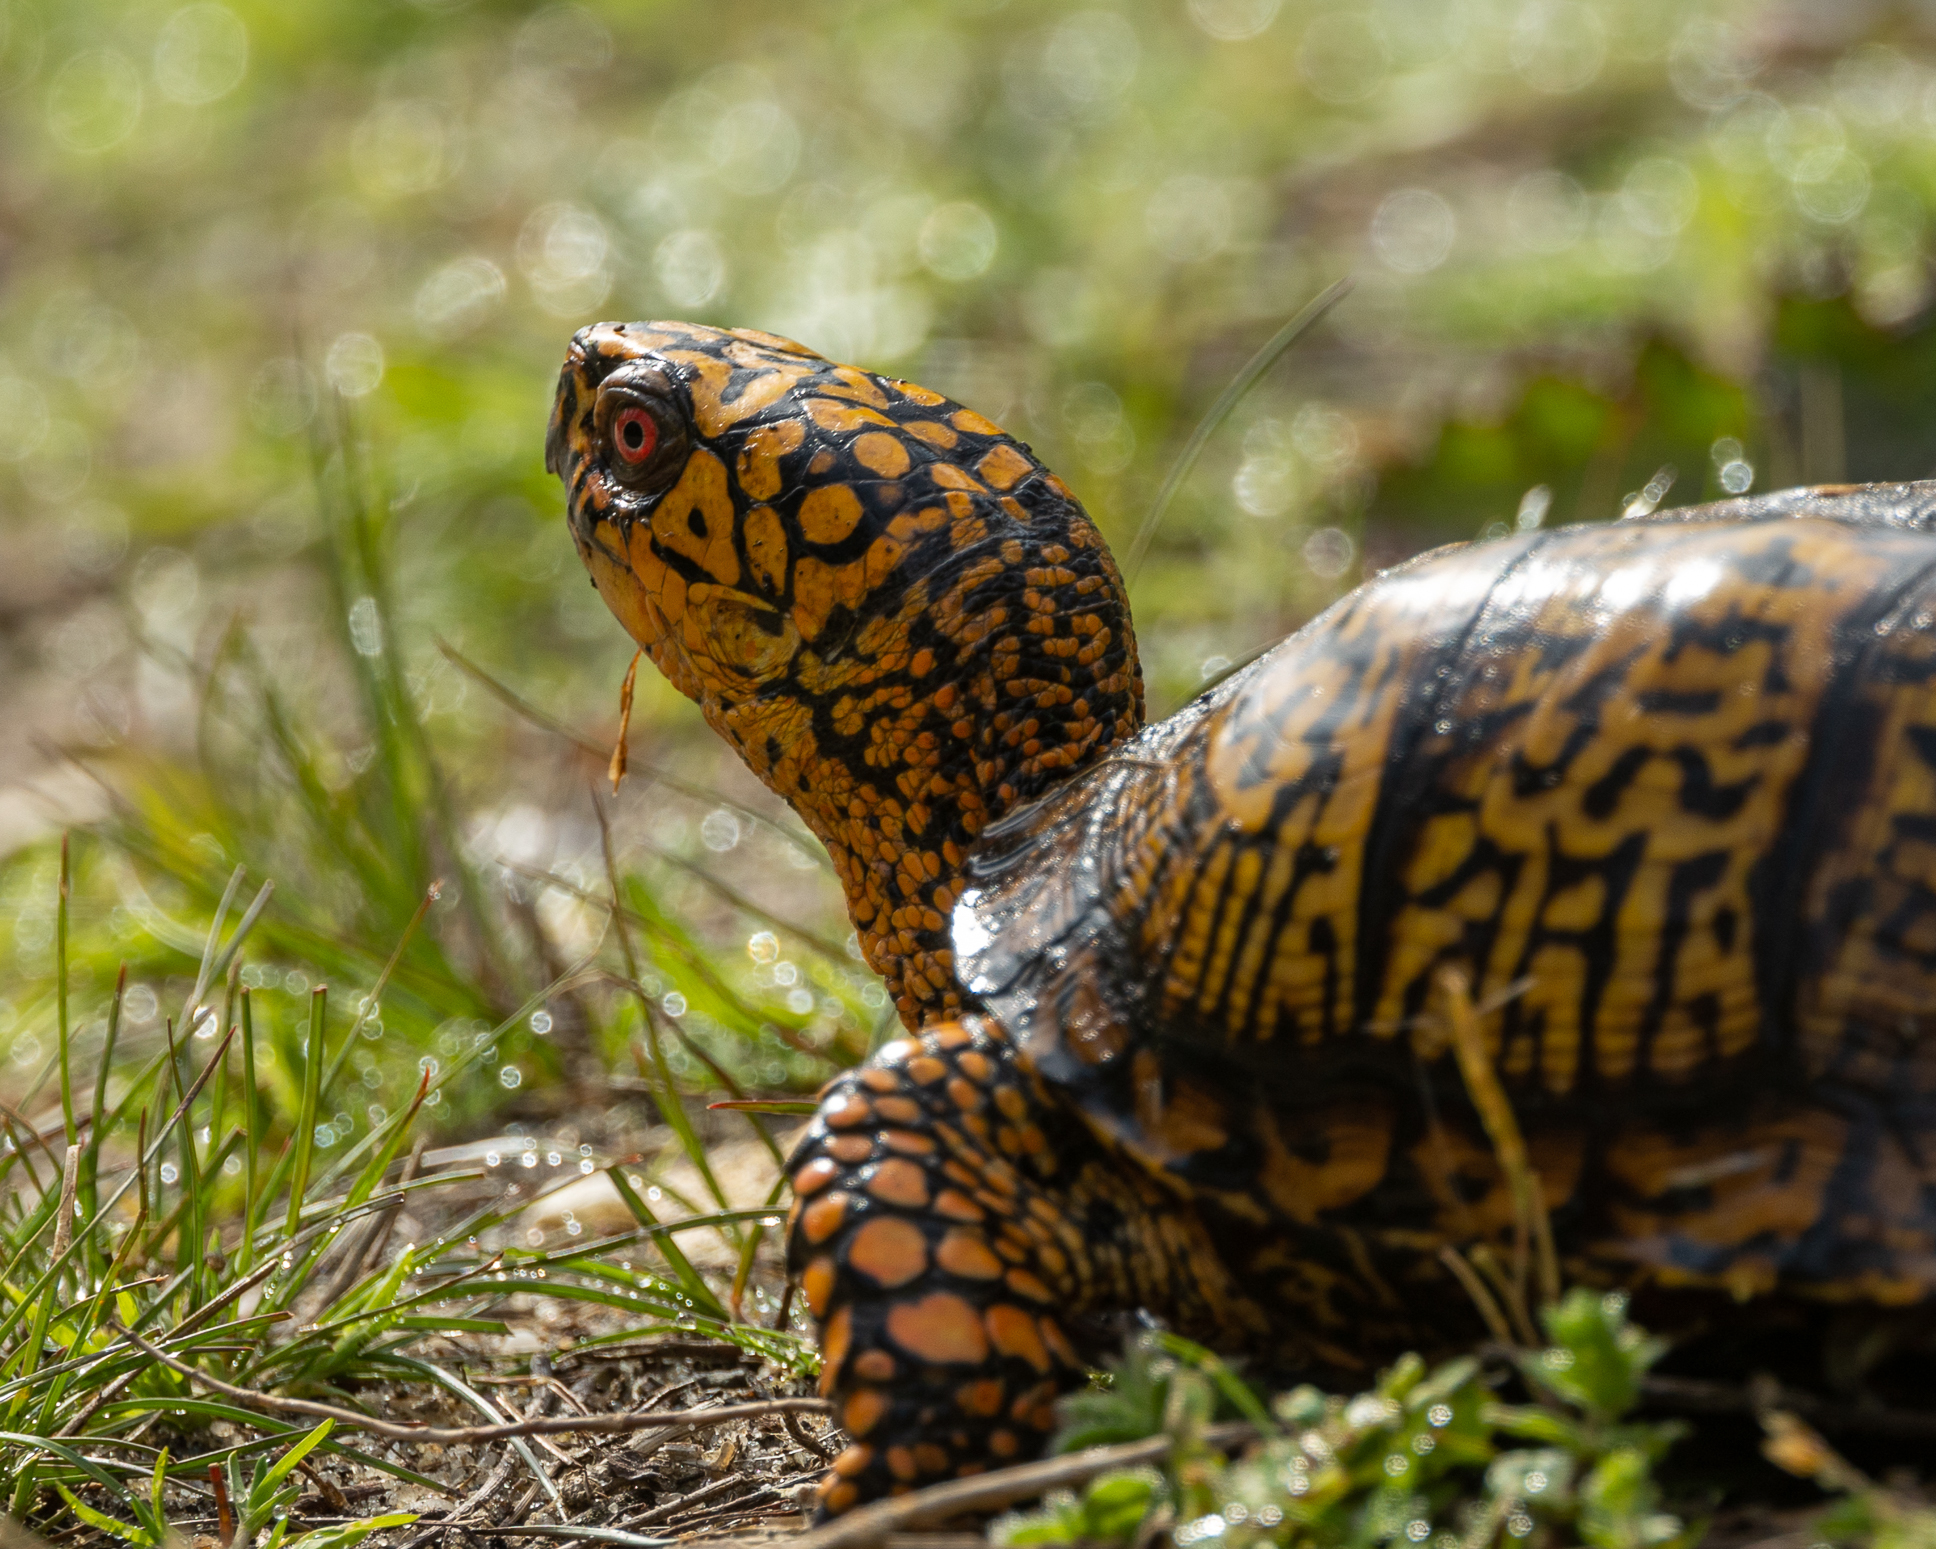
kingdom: Animalia
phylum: Chordata
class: Testudines
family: Emydidae
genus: Terrapene
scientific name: Terrapene carolina
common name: Common box turtle
